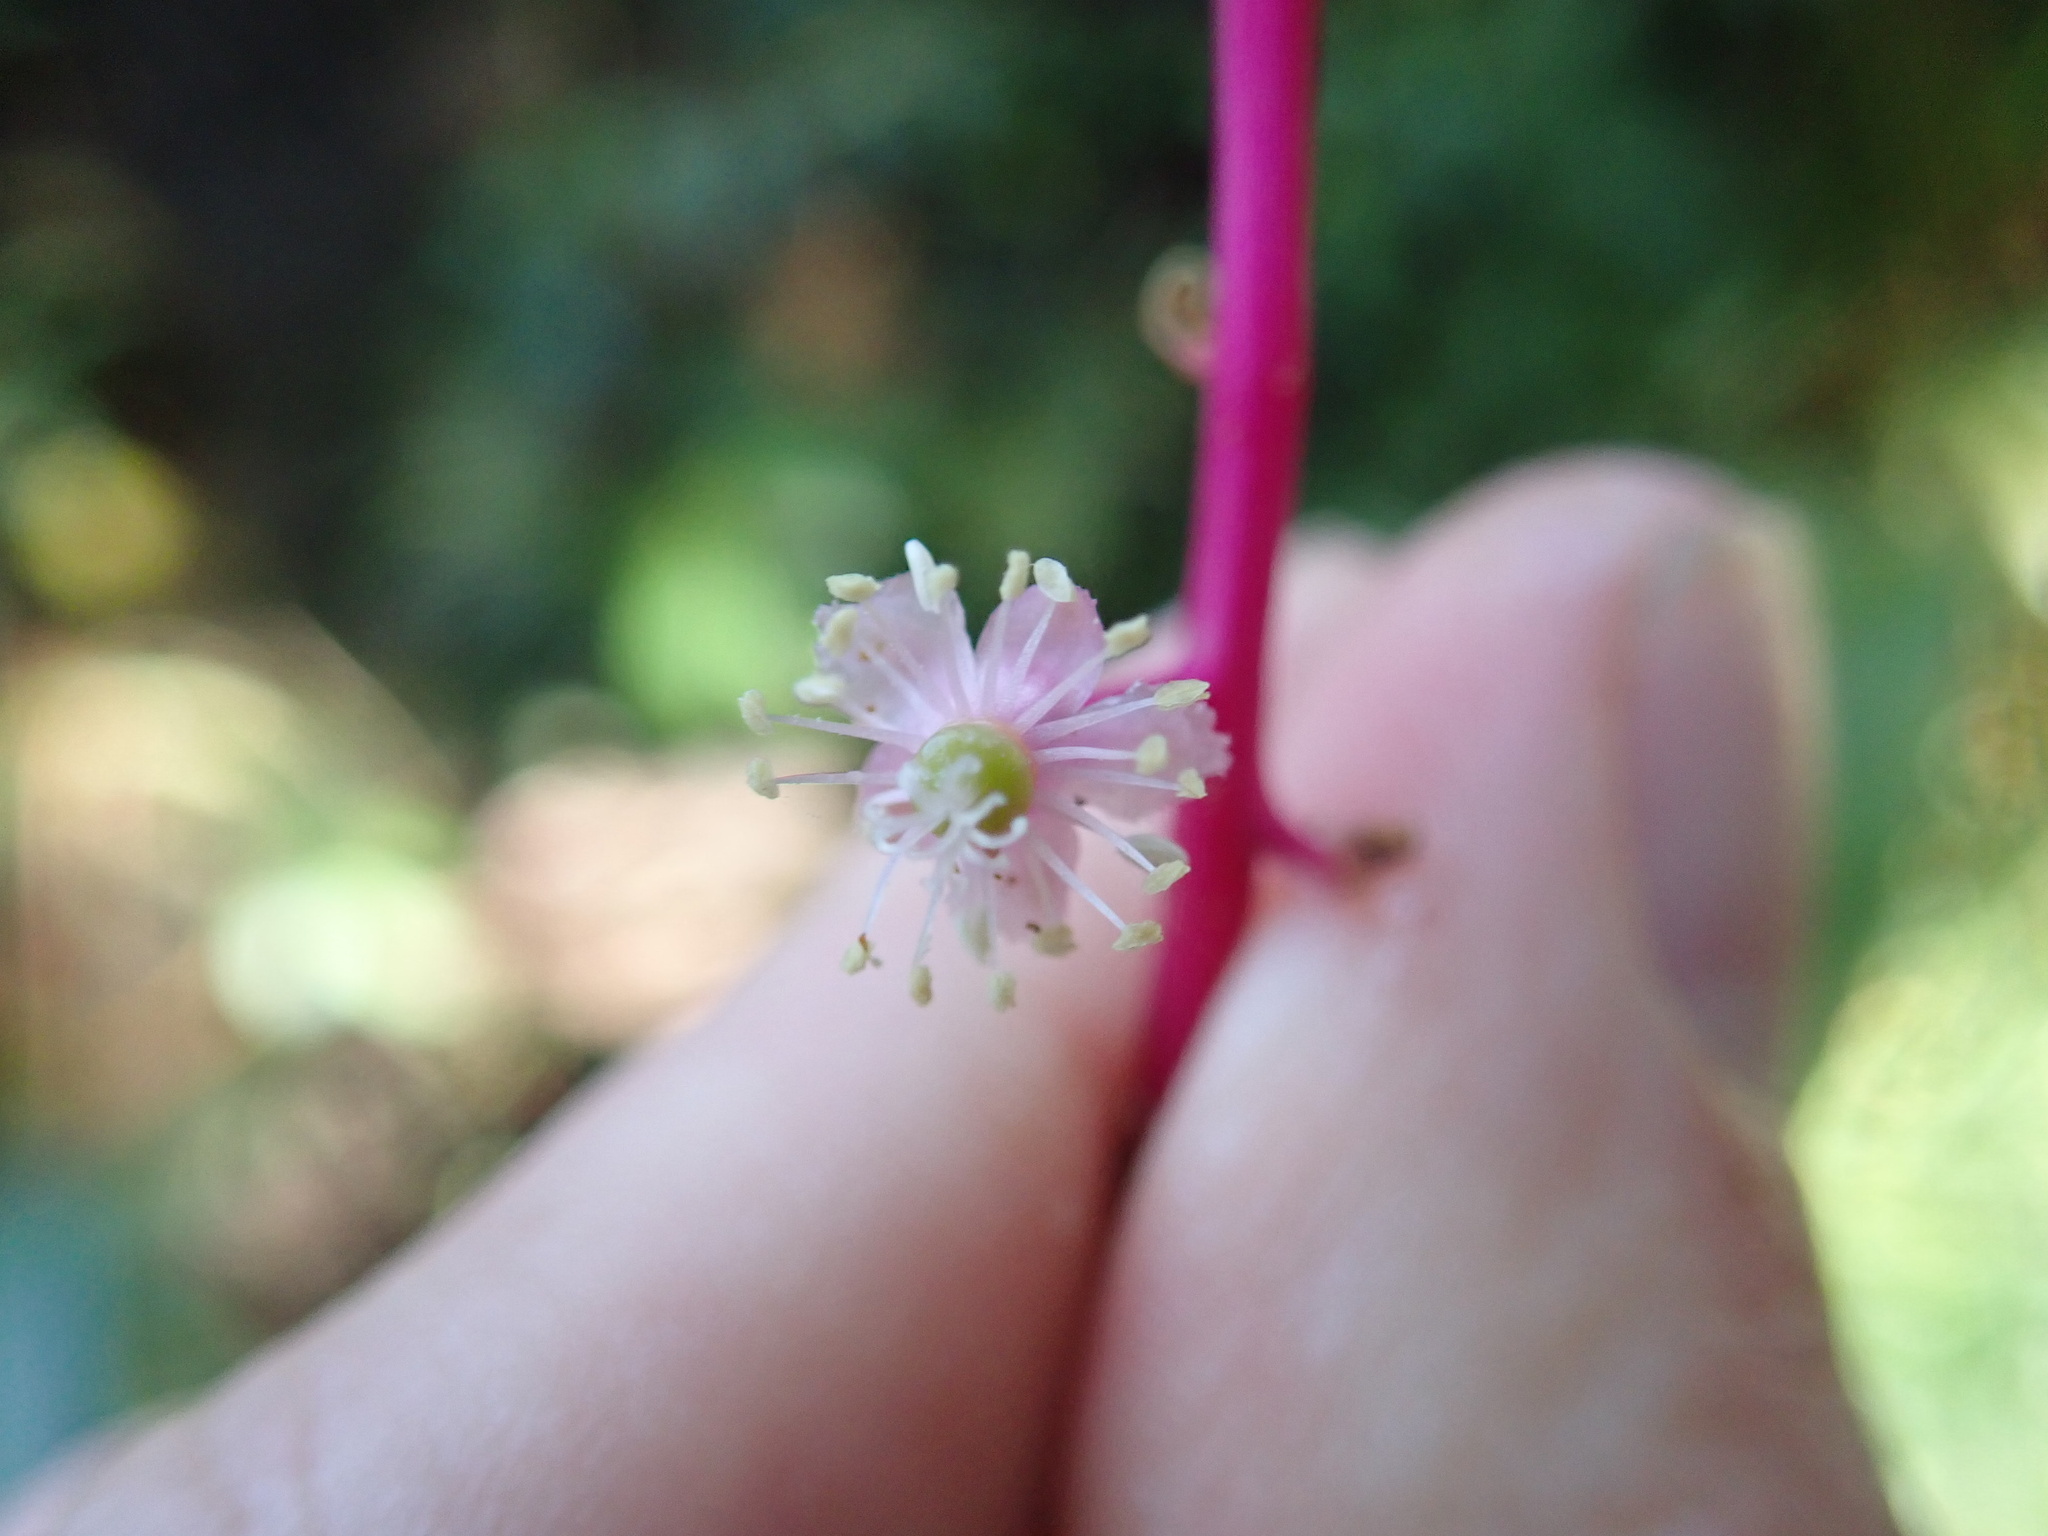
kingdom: Plantae
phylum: Tracheophyta
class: Magnoliopsida
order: Caryophyllales
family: Phytolaccaceae
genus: Phytolacca
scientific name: Phytolacca rivinoides
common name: Venezuelan pokeweed
